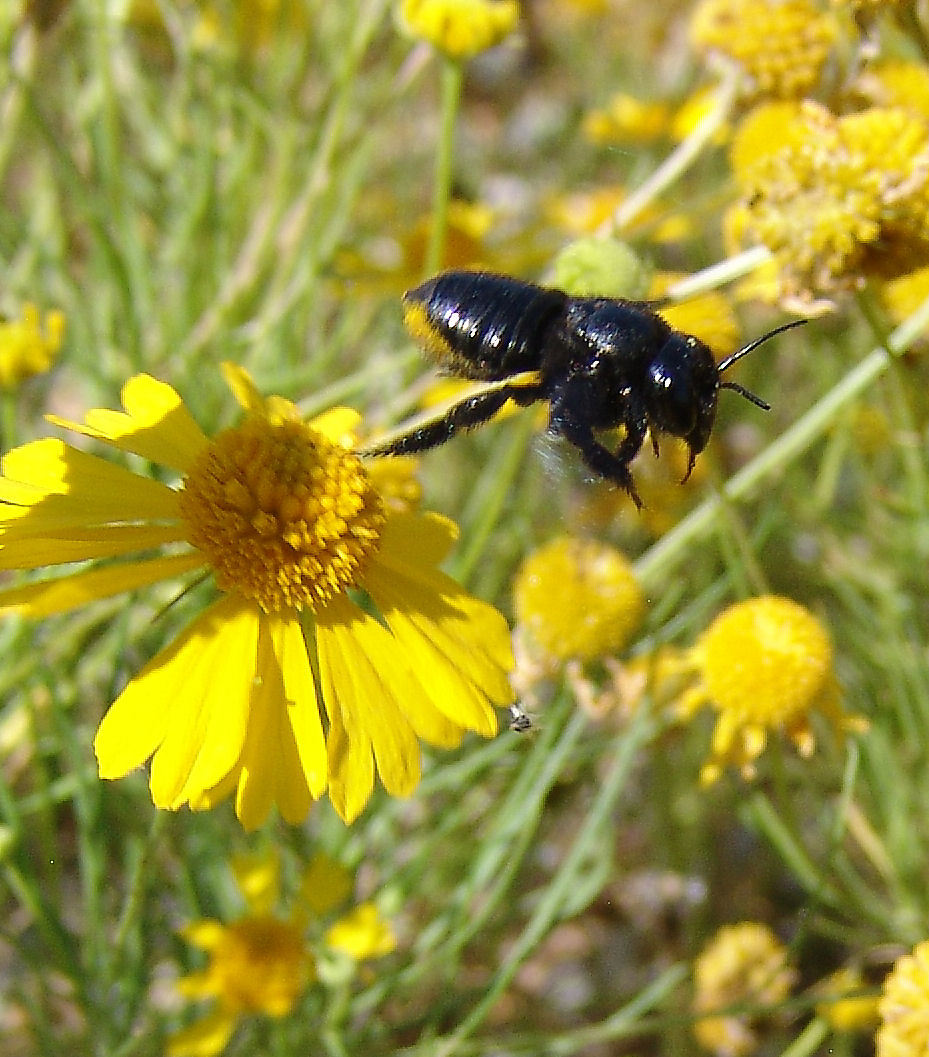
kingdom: Animalia
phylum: Arthropoda
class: Insecta
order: Hymenoptera
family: Megachilidae
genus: Megachile
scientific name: Megachile xylocopoides
